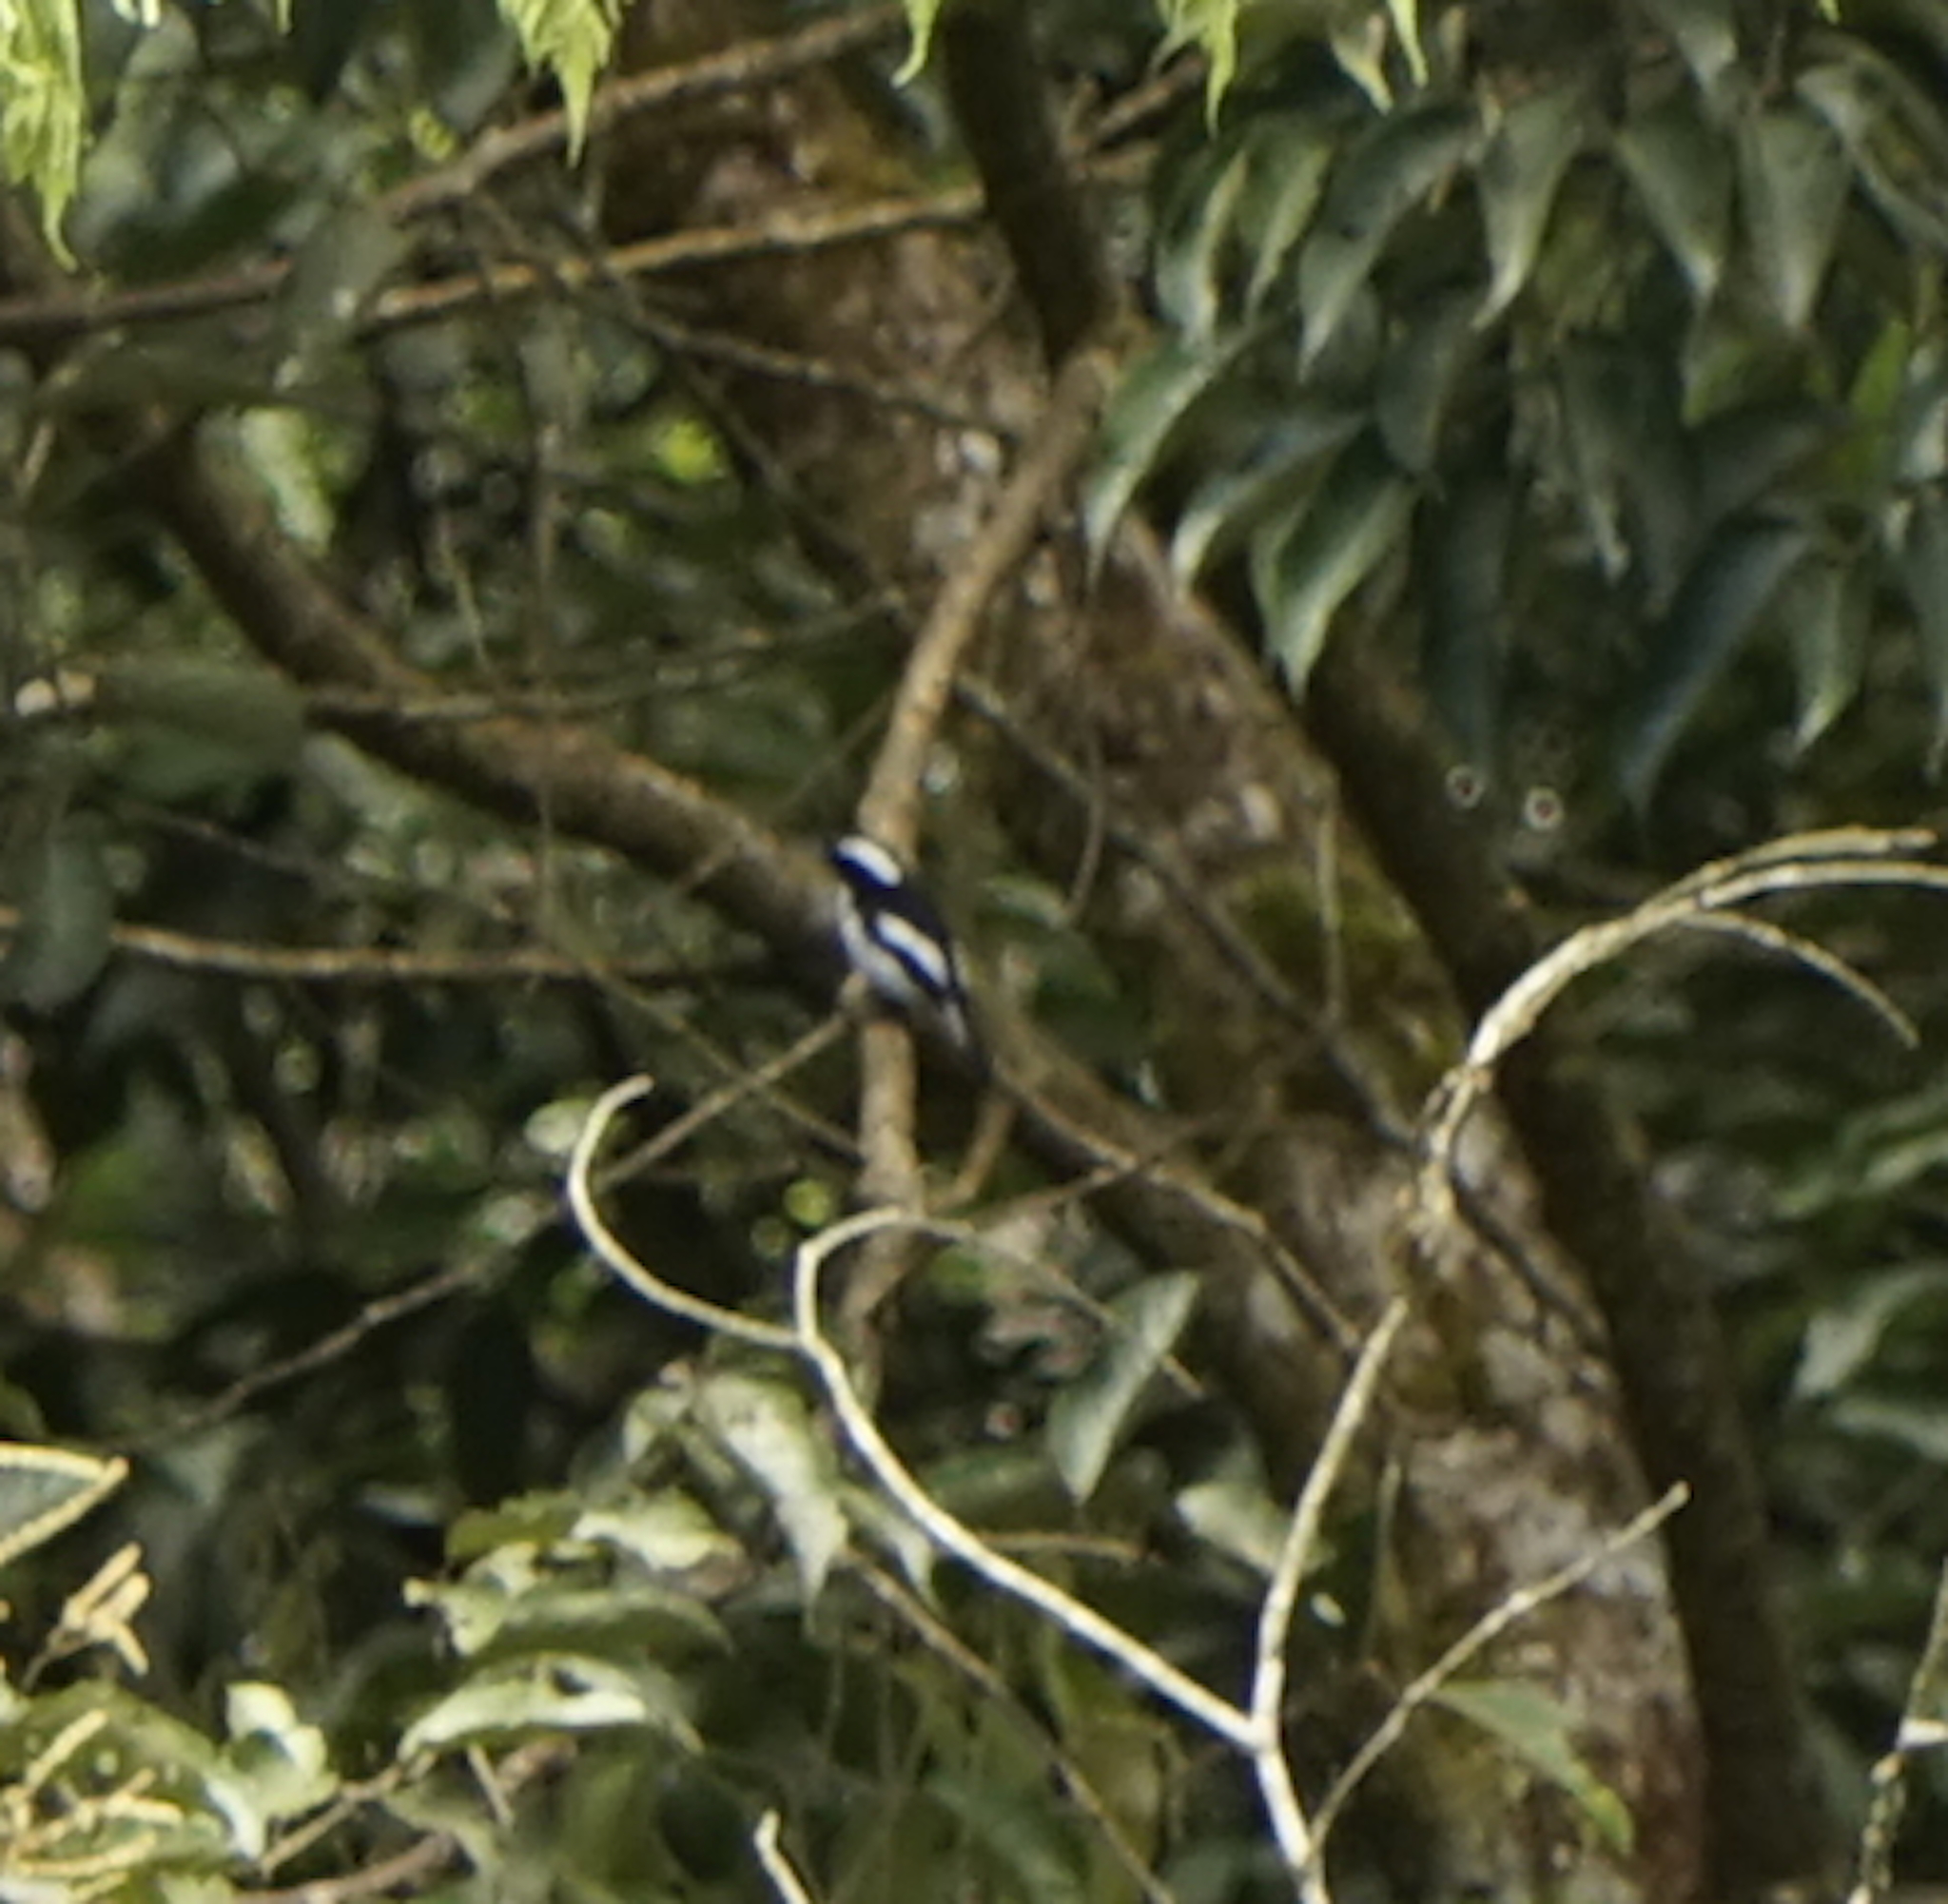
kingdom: Animalia
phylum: Chordata
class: Aves
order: Passeriformes
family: Muscicapidae
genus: Ficedula
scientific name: Ficedula westermanni
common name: Little pied flycatcher
